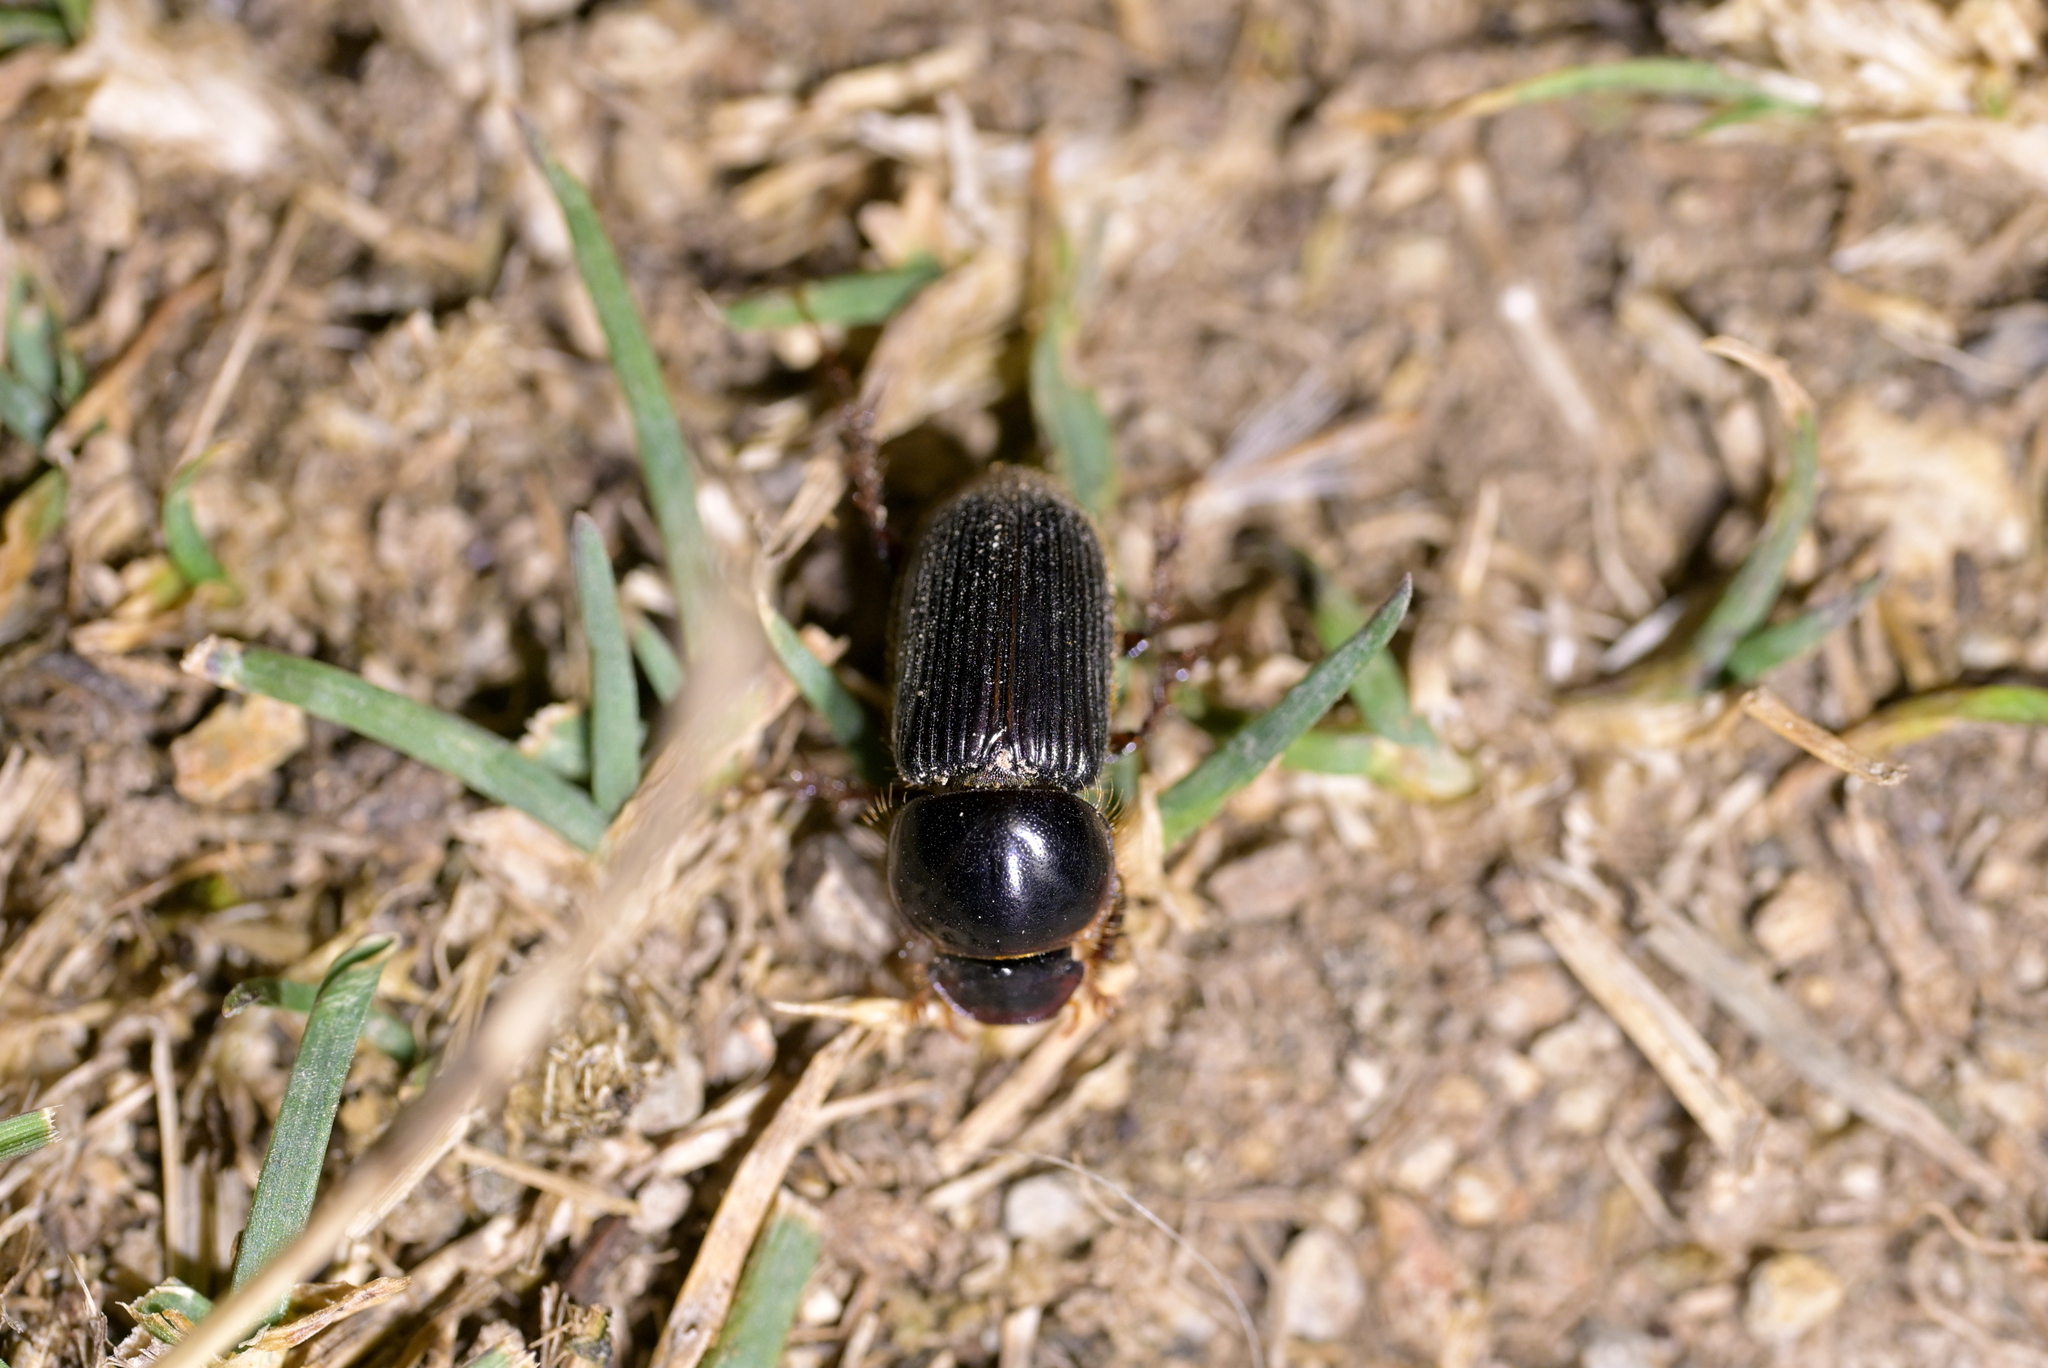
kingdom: Animalia
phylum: Arthropoda
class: Insecta
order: Coleoptera
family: Scarabaeidae
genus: Acrossidius
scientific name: Acrossidius tasmaniae
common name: Black-headed pasture cockchafer
